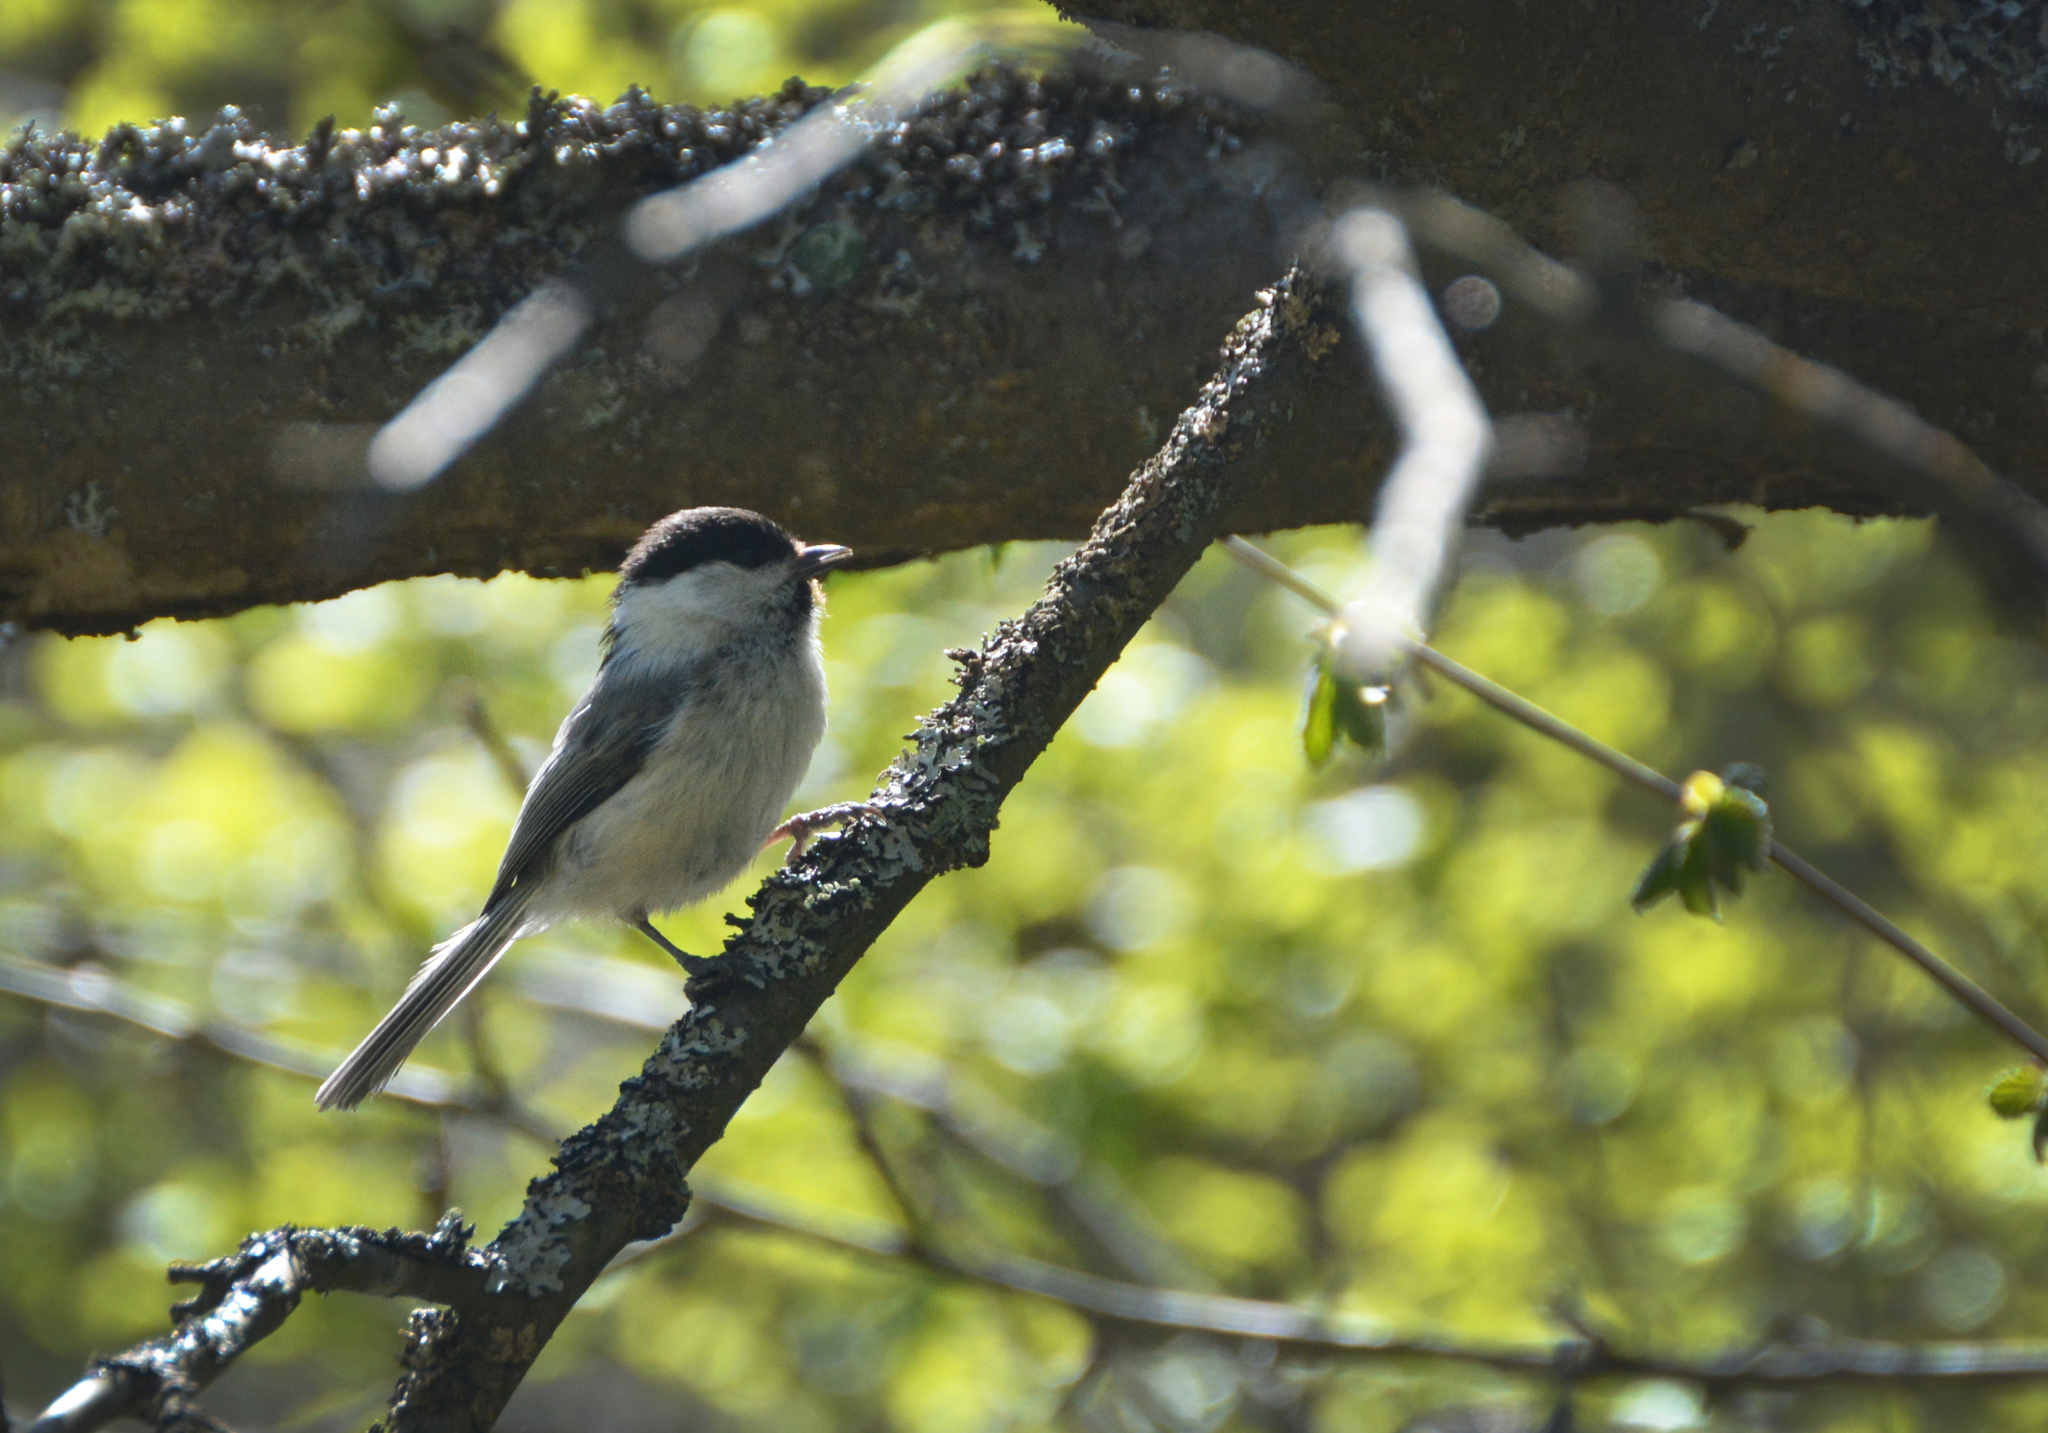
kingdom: Animalia
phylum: Chordata
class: Aves
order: Passeriformes
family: Paridae
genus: Poecile
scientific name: Poecile montanus
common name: Willow tit
